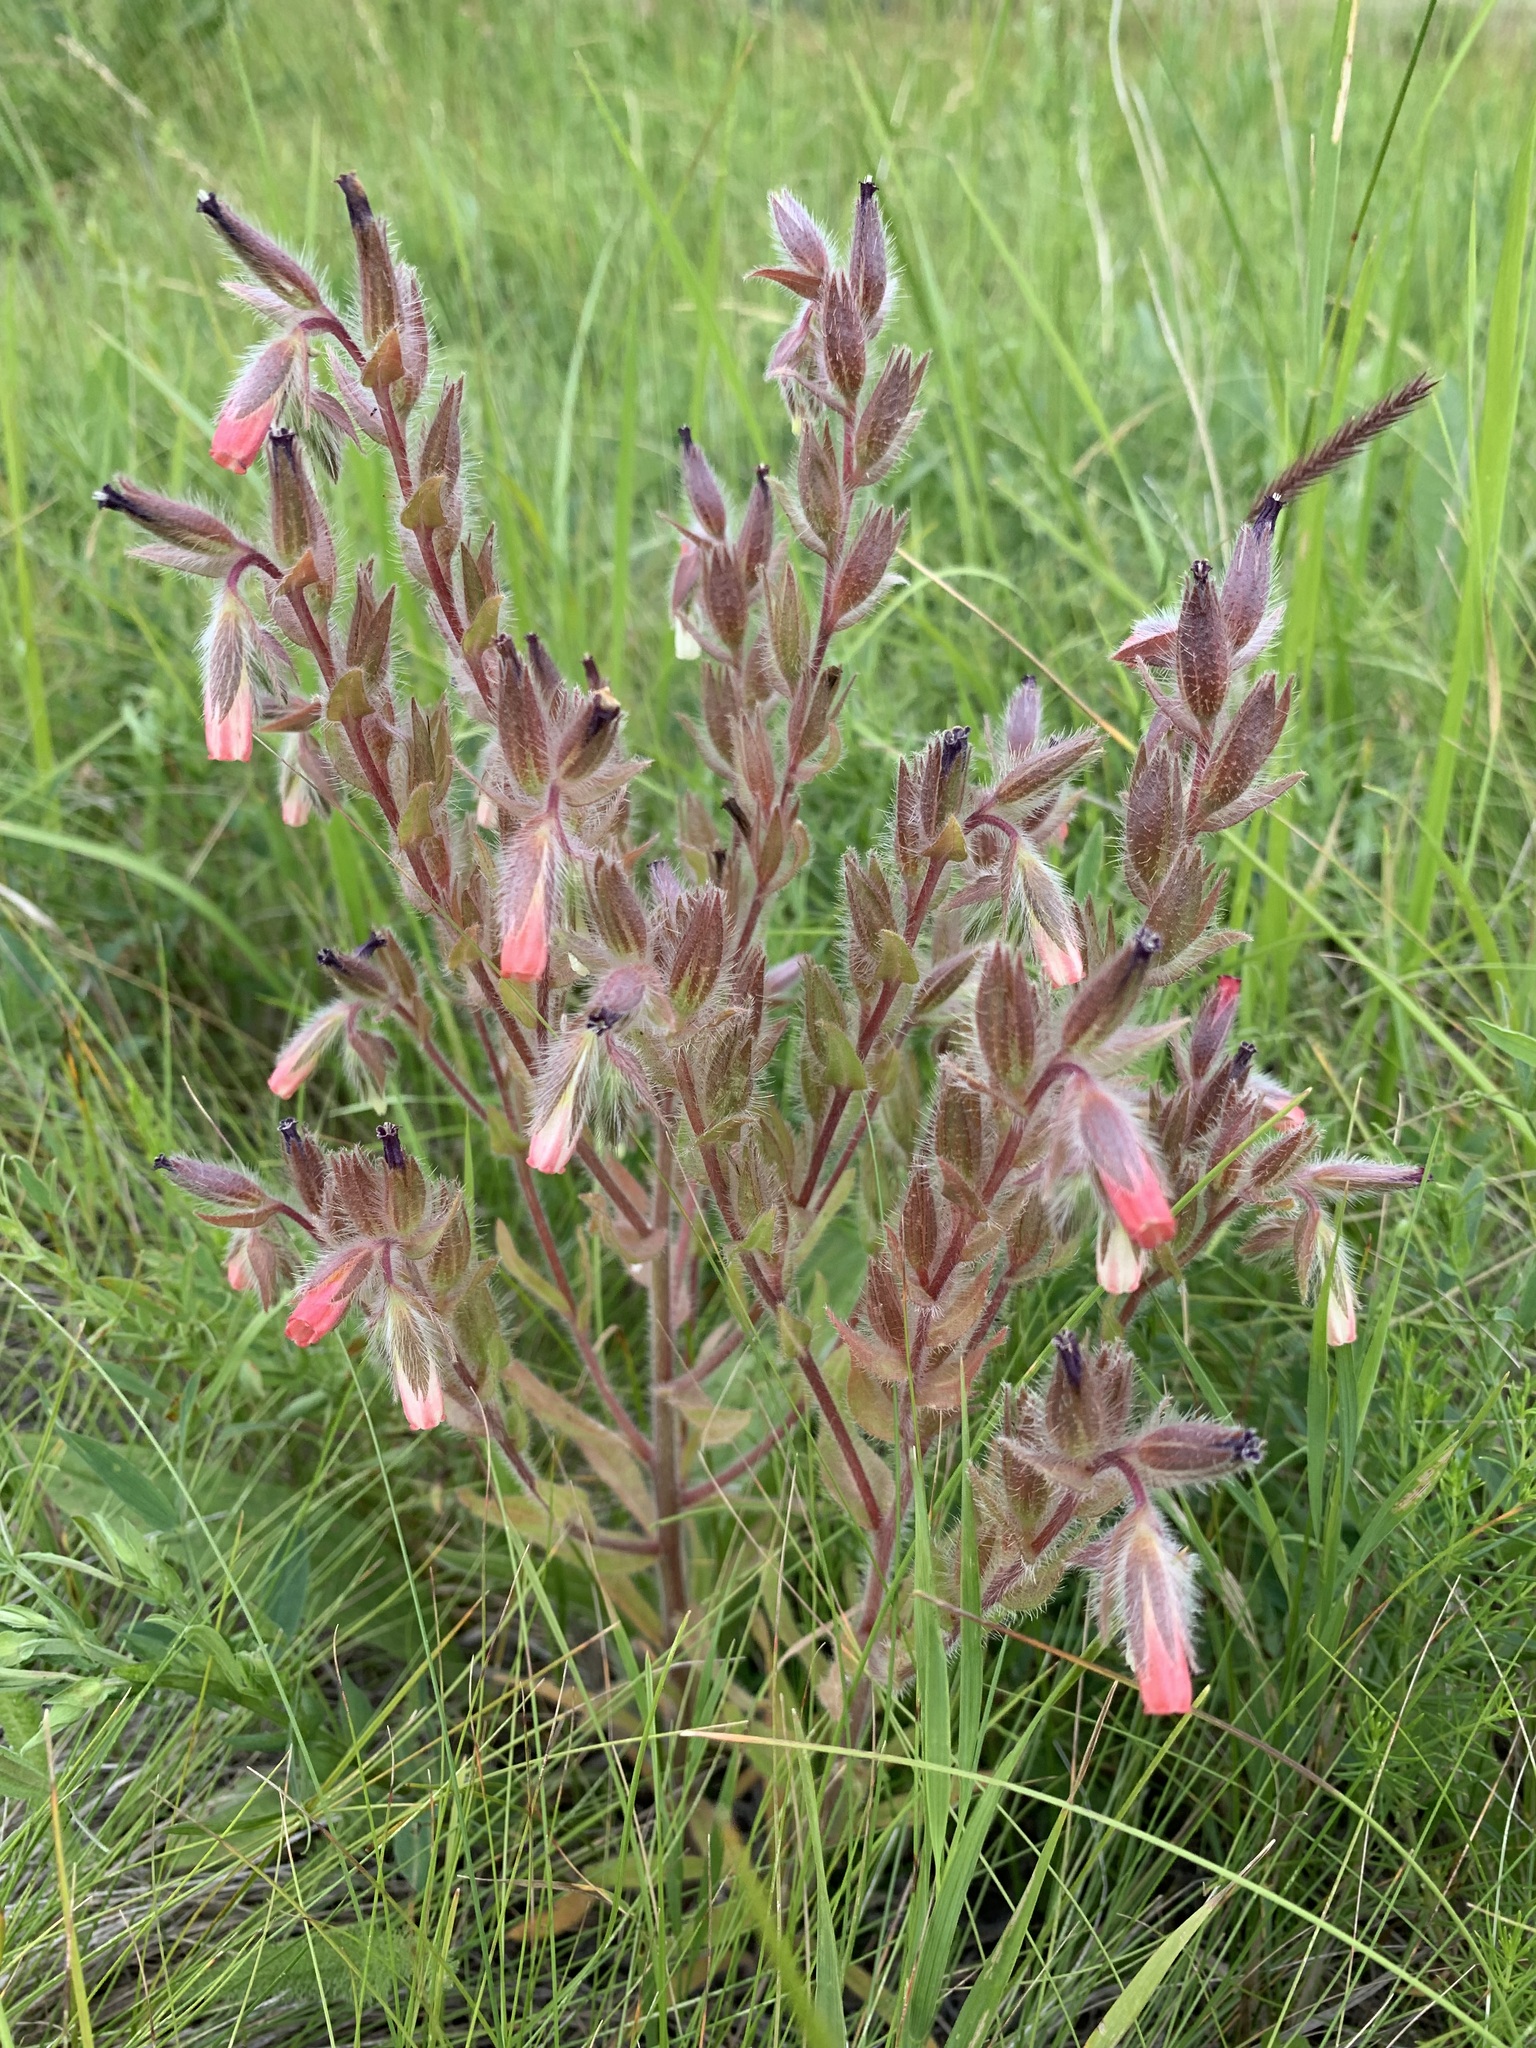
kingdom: Plantae
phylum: Tracheophyta
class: Magnoliopsida
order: Boraginales
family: Boraginaceae
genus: Onosma
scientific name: Onosma polychroma
